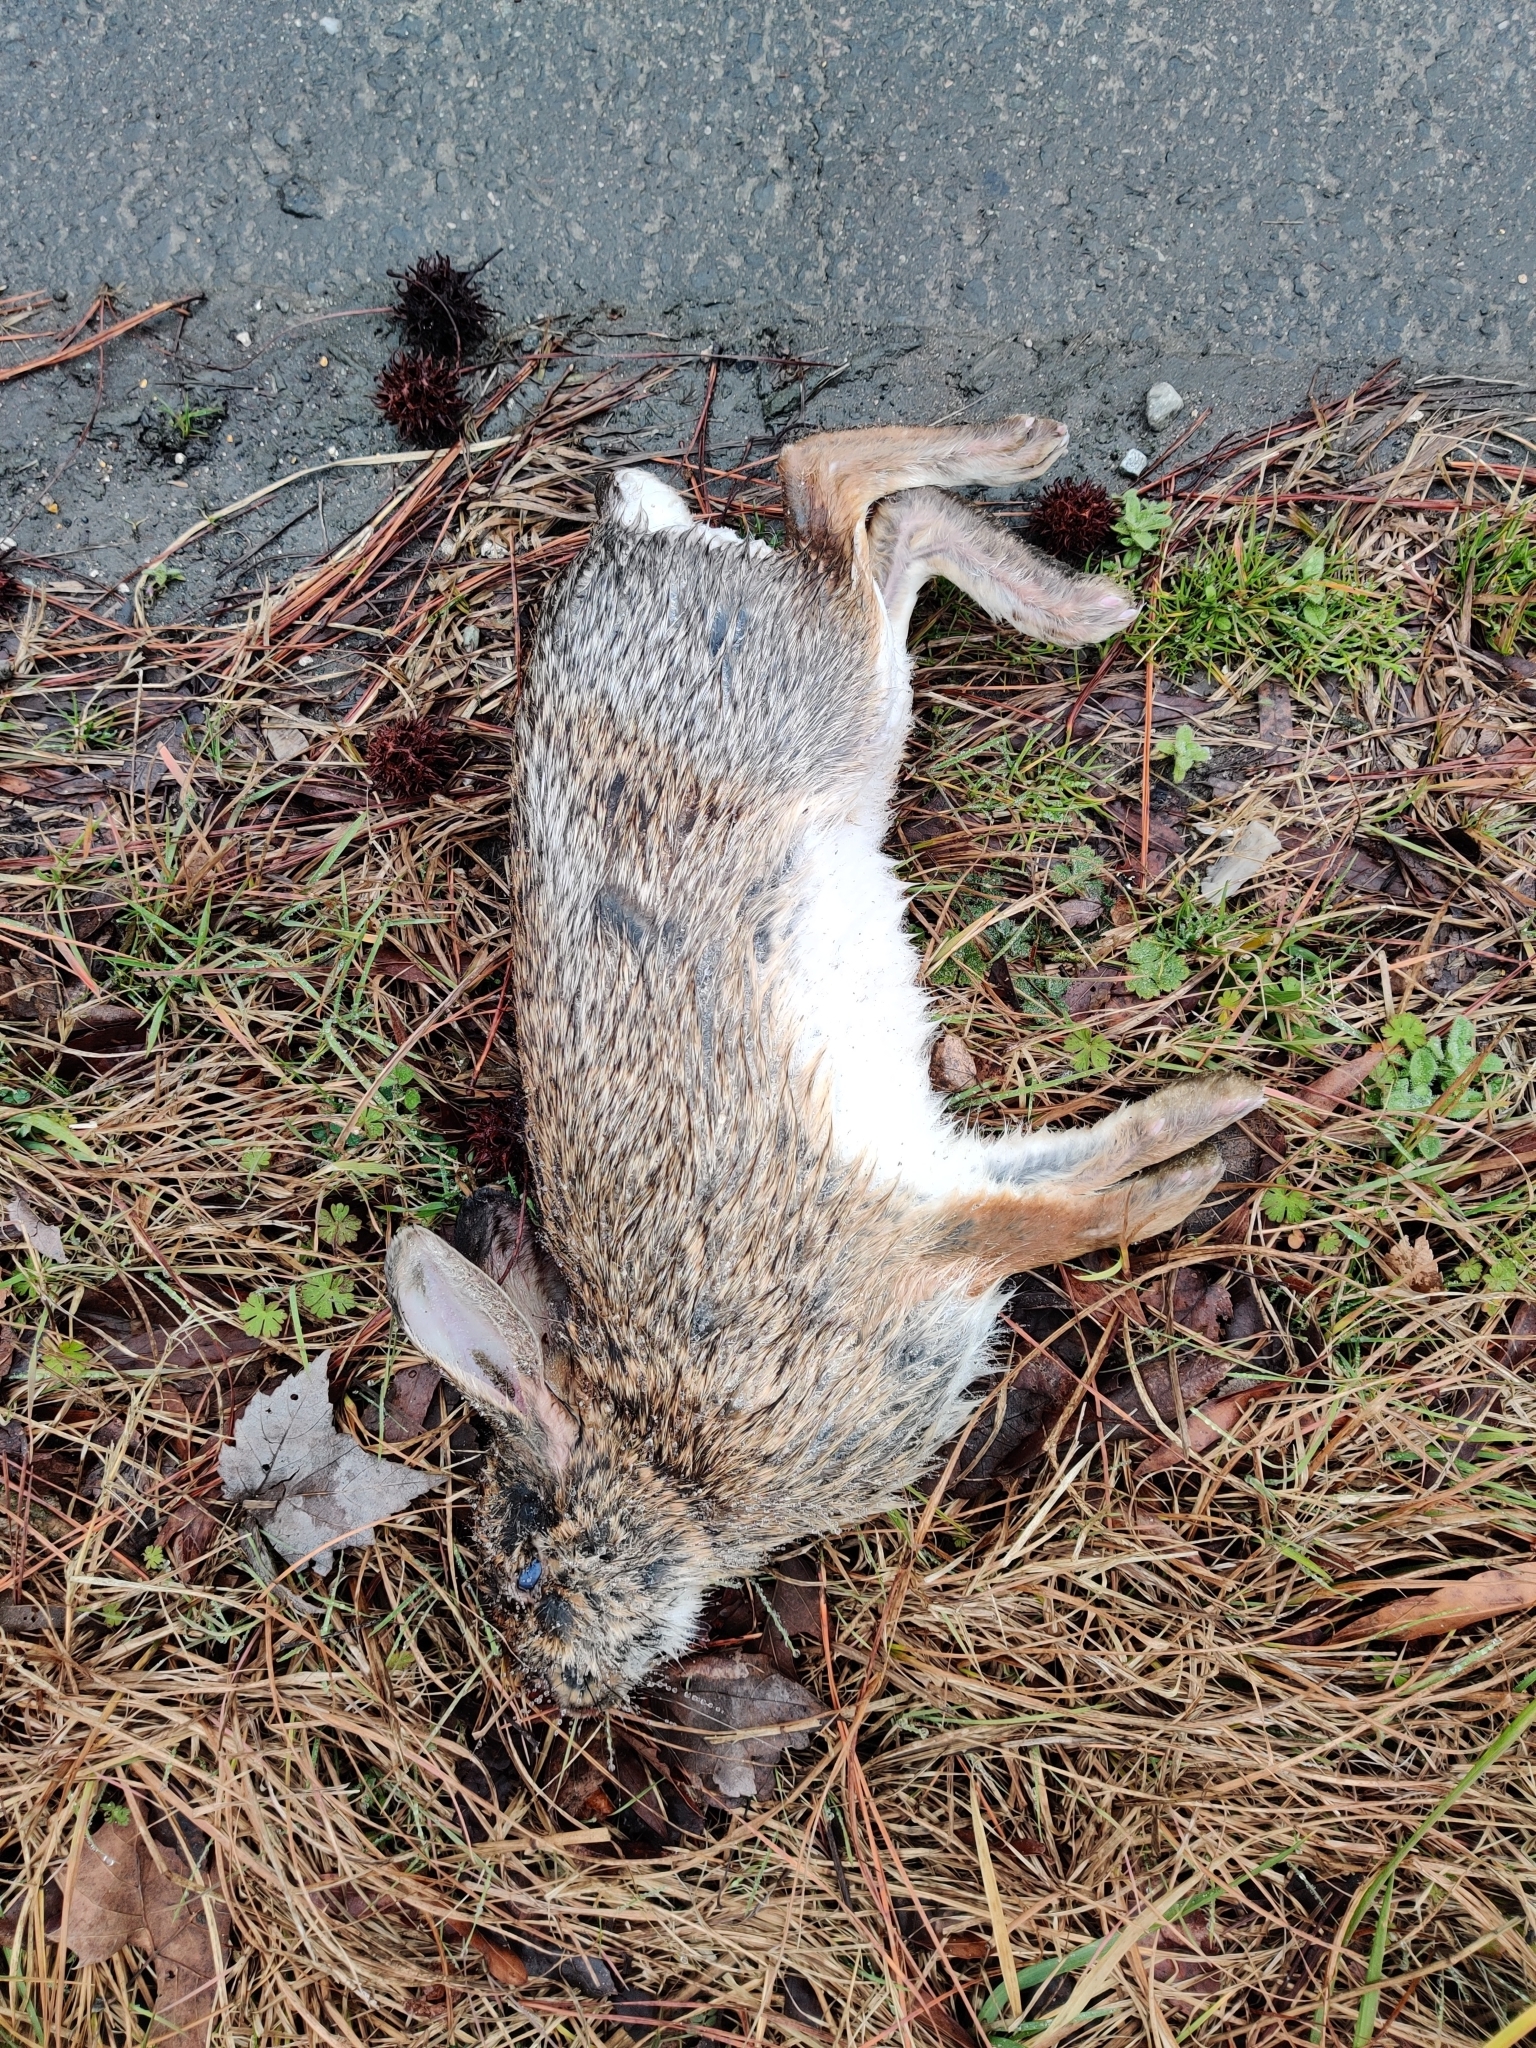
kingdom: Animalia
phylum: Chordata
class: Mammalia
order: Lagomorpha
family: Leporidae
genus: Sylvilagus
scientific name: Sylvilagus floridanus
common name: Eastern cottontail
